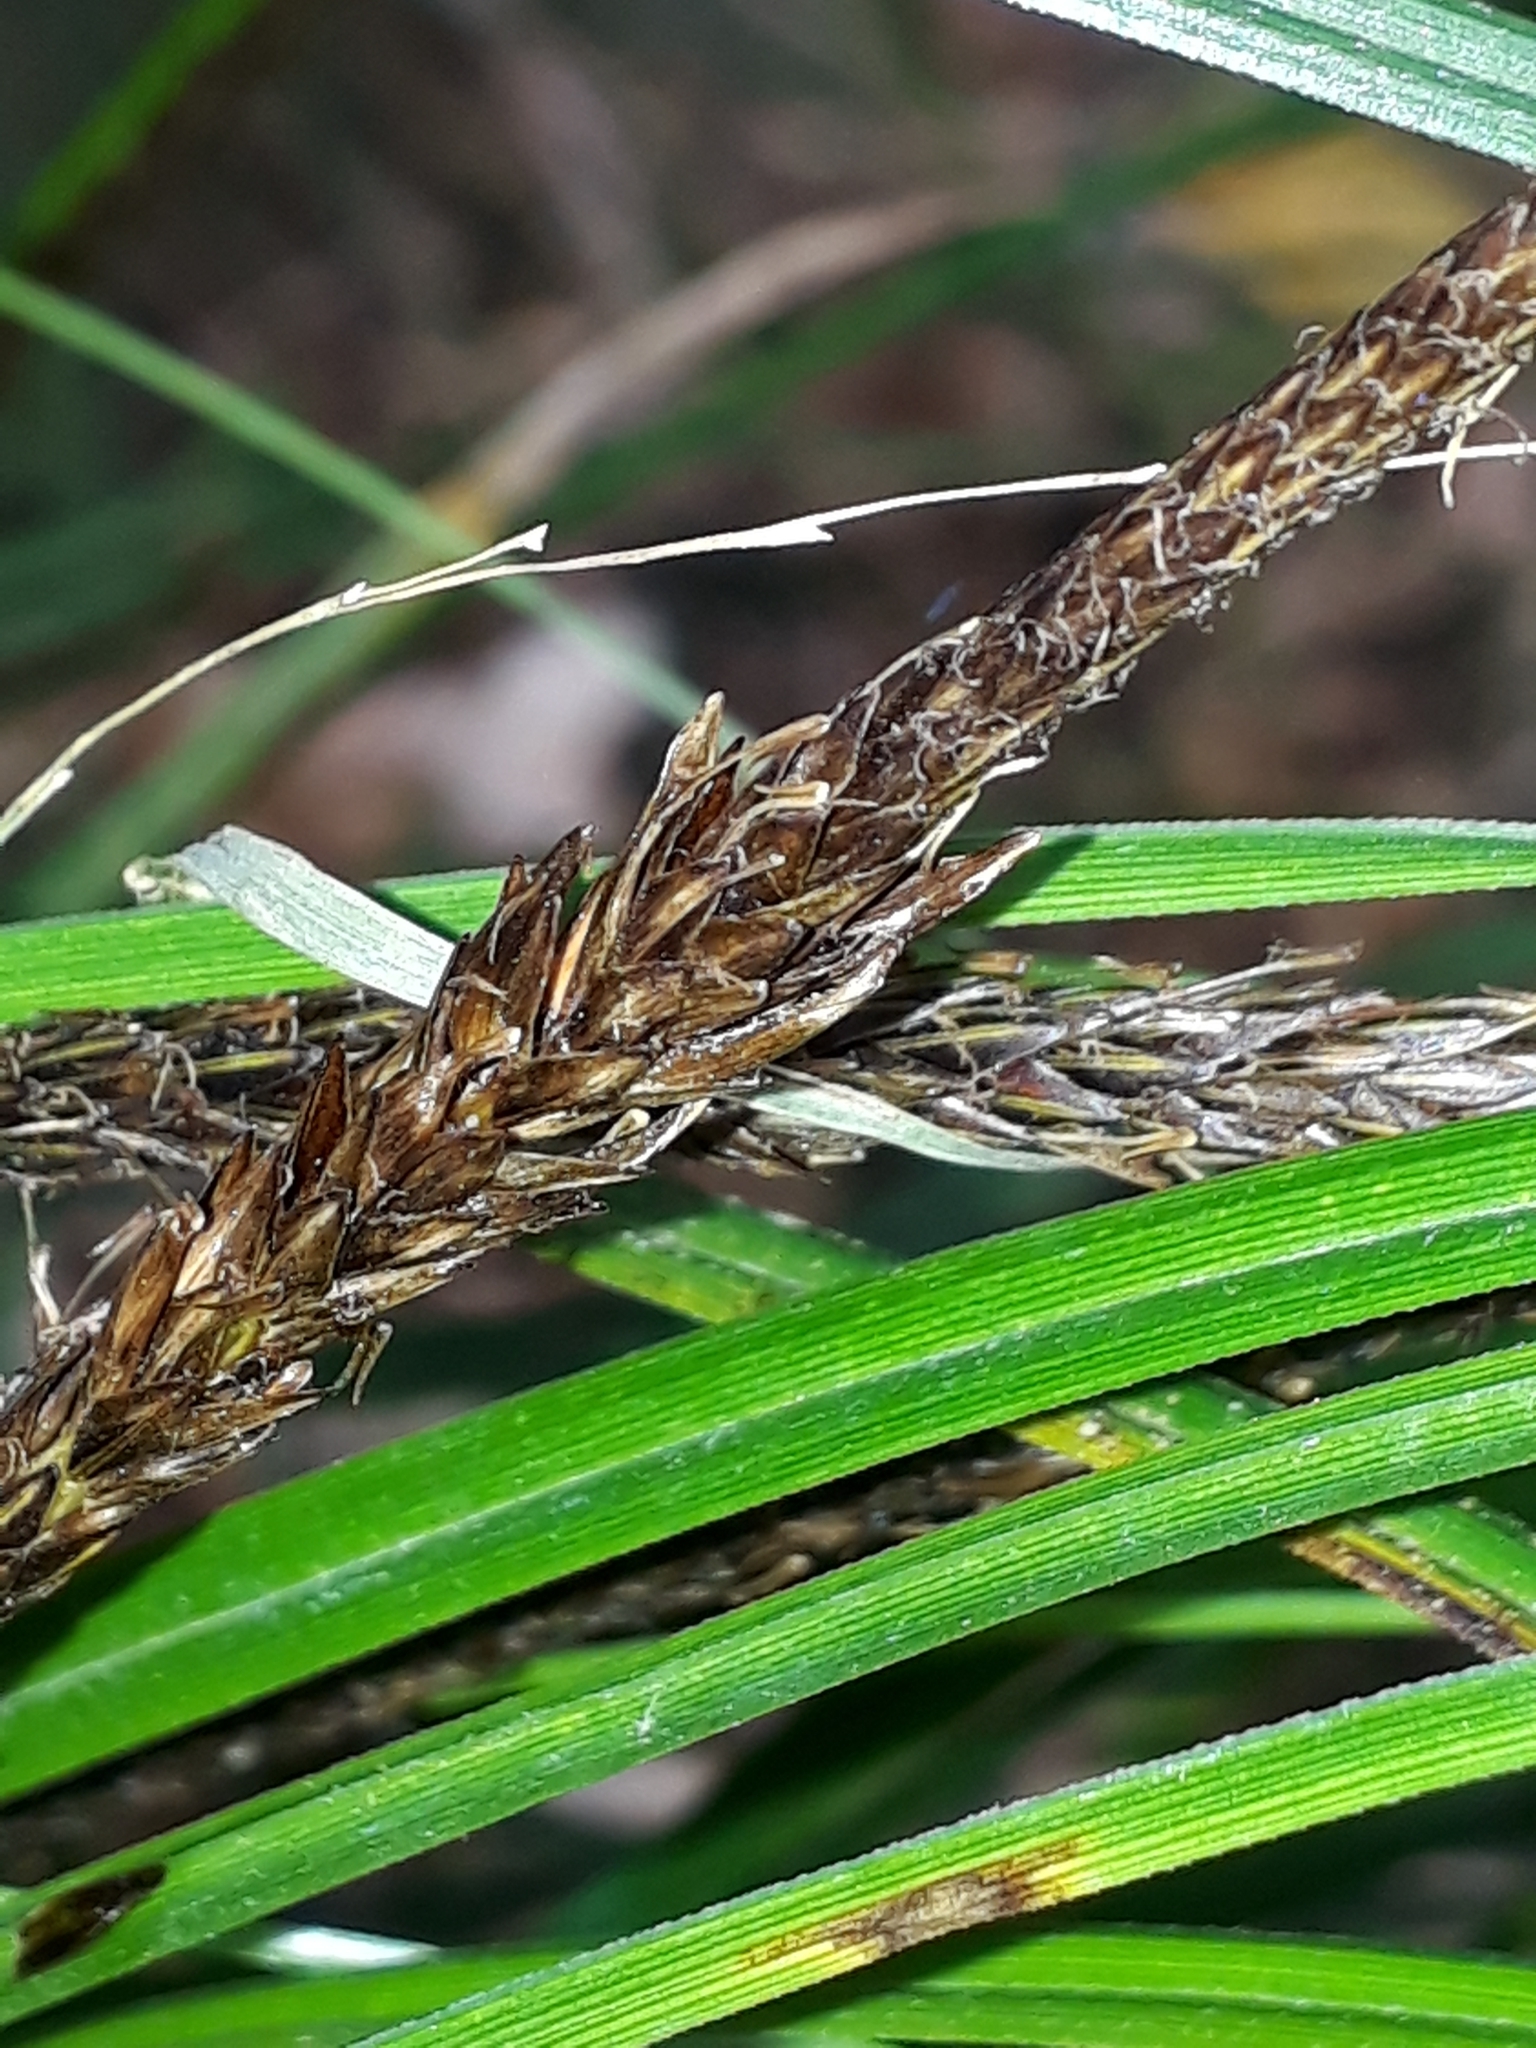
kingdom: Plantae
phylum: Tracheophyta
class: Liliopsida
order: Poales
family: Cyperaceae
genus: Carex
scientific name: Carex uncinata
